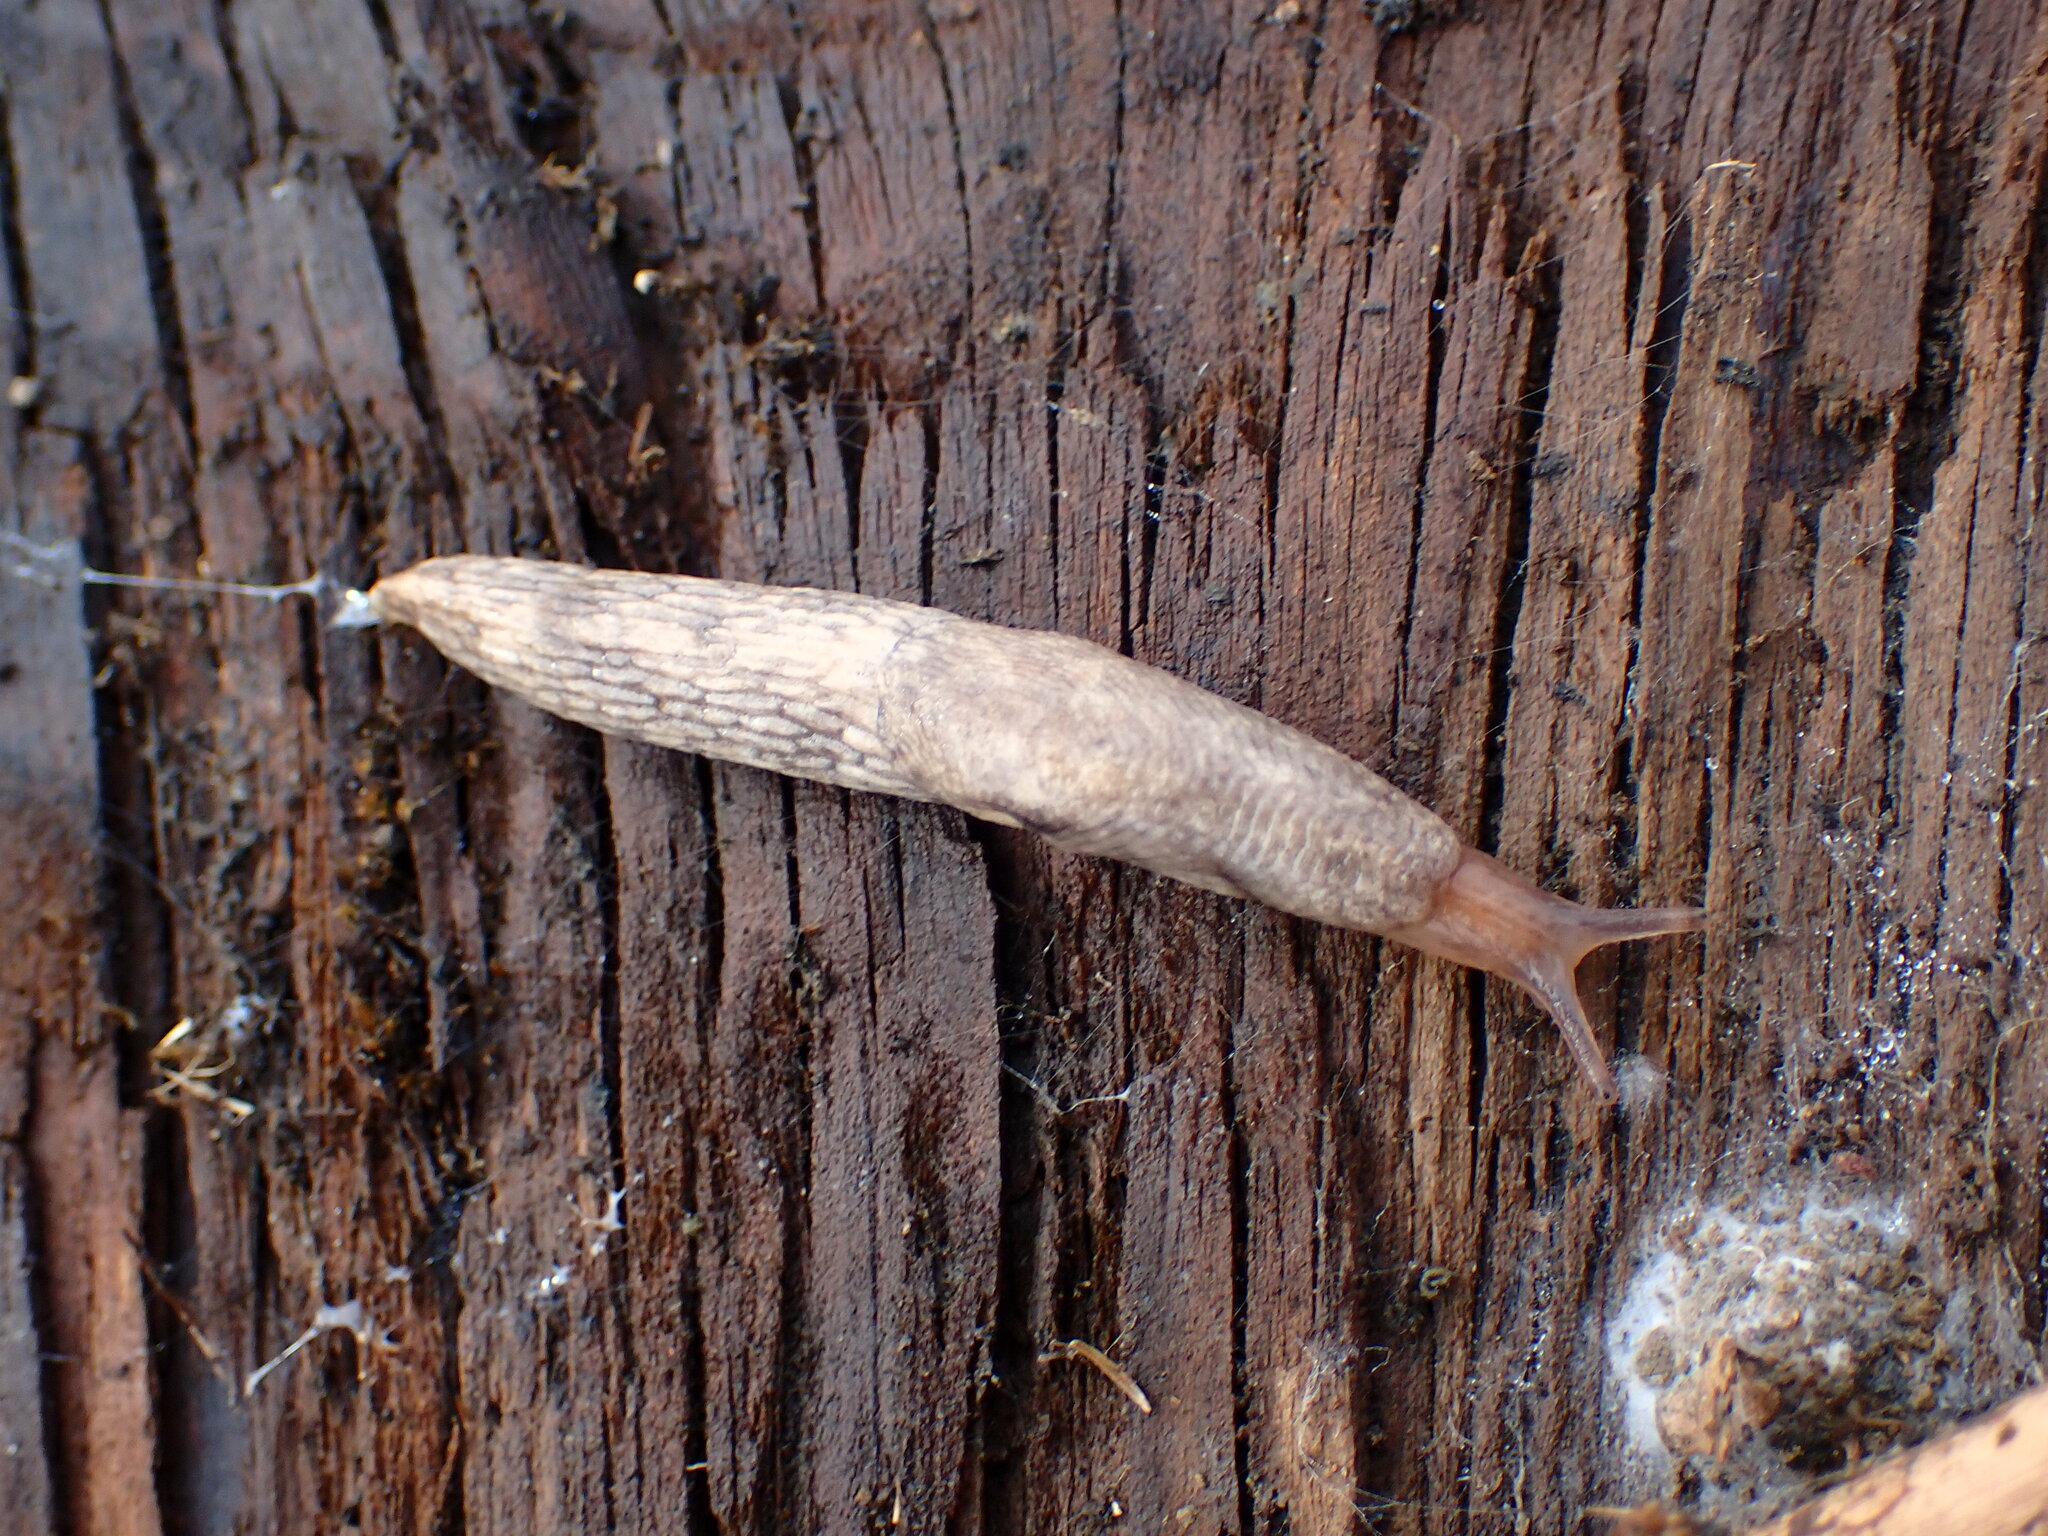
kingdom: Animalia
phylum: Mollusca
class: Gastropoda
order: Stylommatophora
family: Agriolimacidae
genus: Deroceras
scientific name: Deroceras reticulatum
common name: Gray field slug
